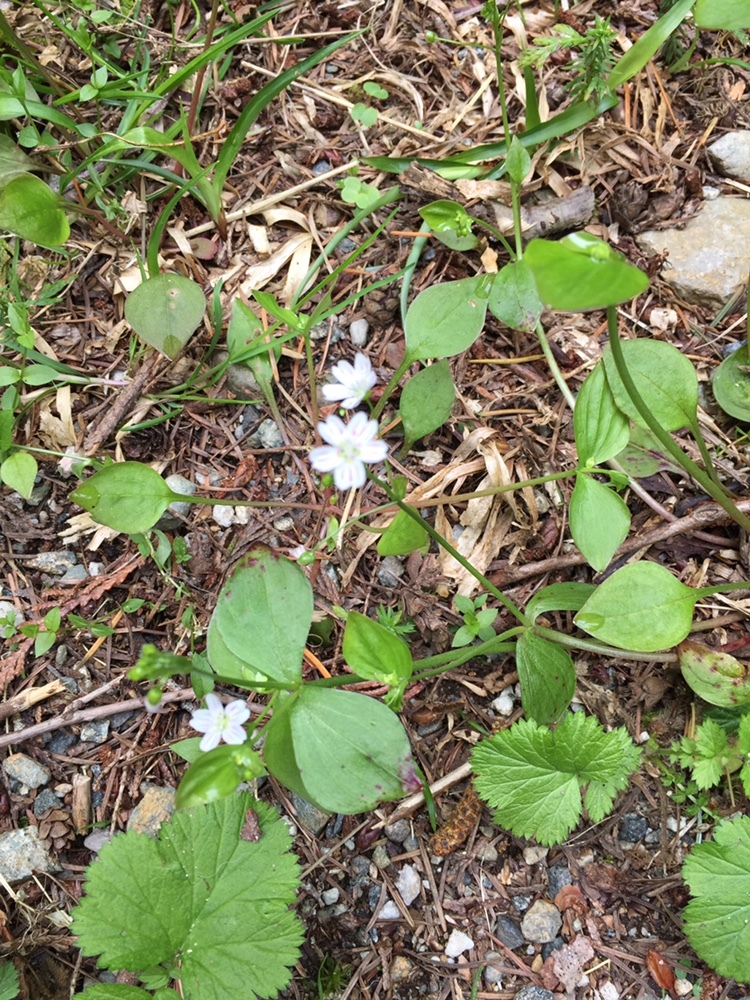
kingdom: Plantae
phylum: Tracheophyta
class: Magnoliopsida
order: Caryophyllales
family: Montiaceae
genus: Claytonia
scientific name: Claytonia sibirica
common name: Pink purslane
